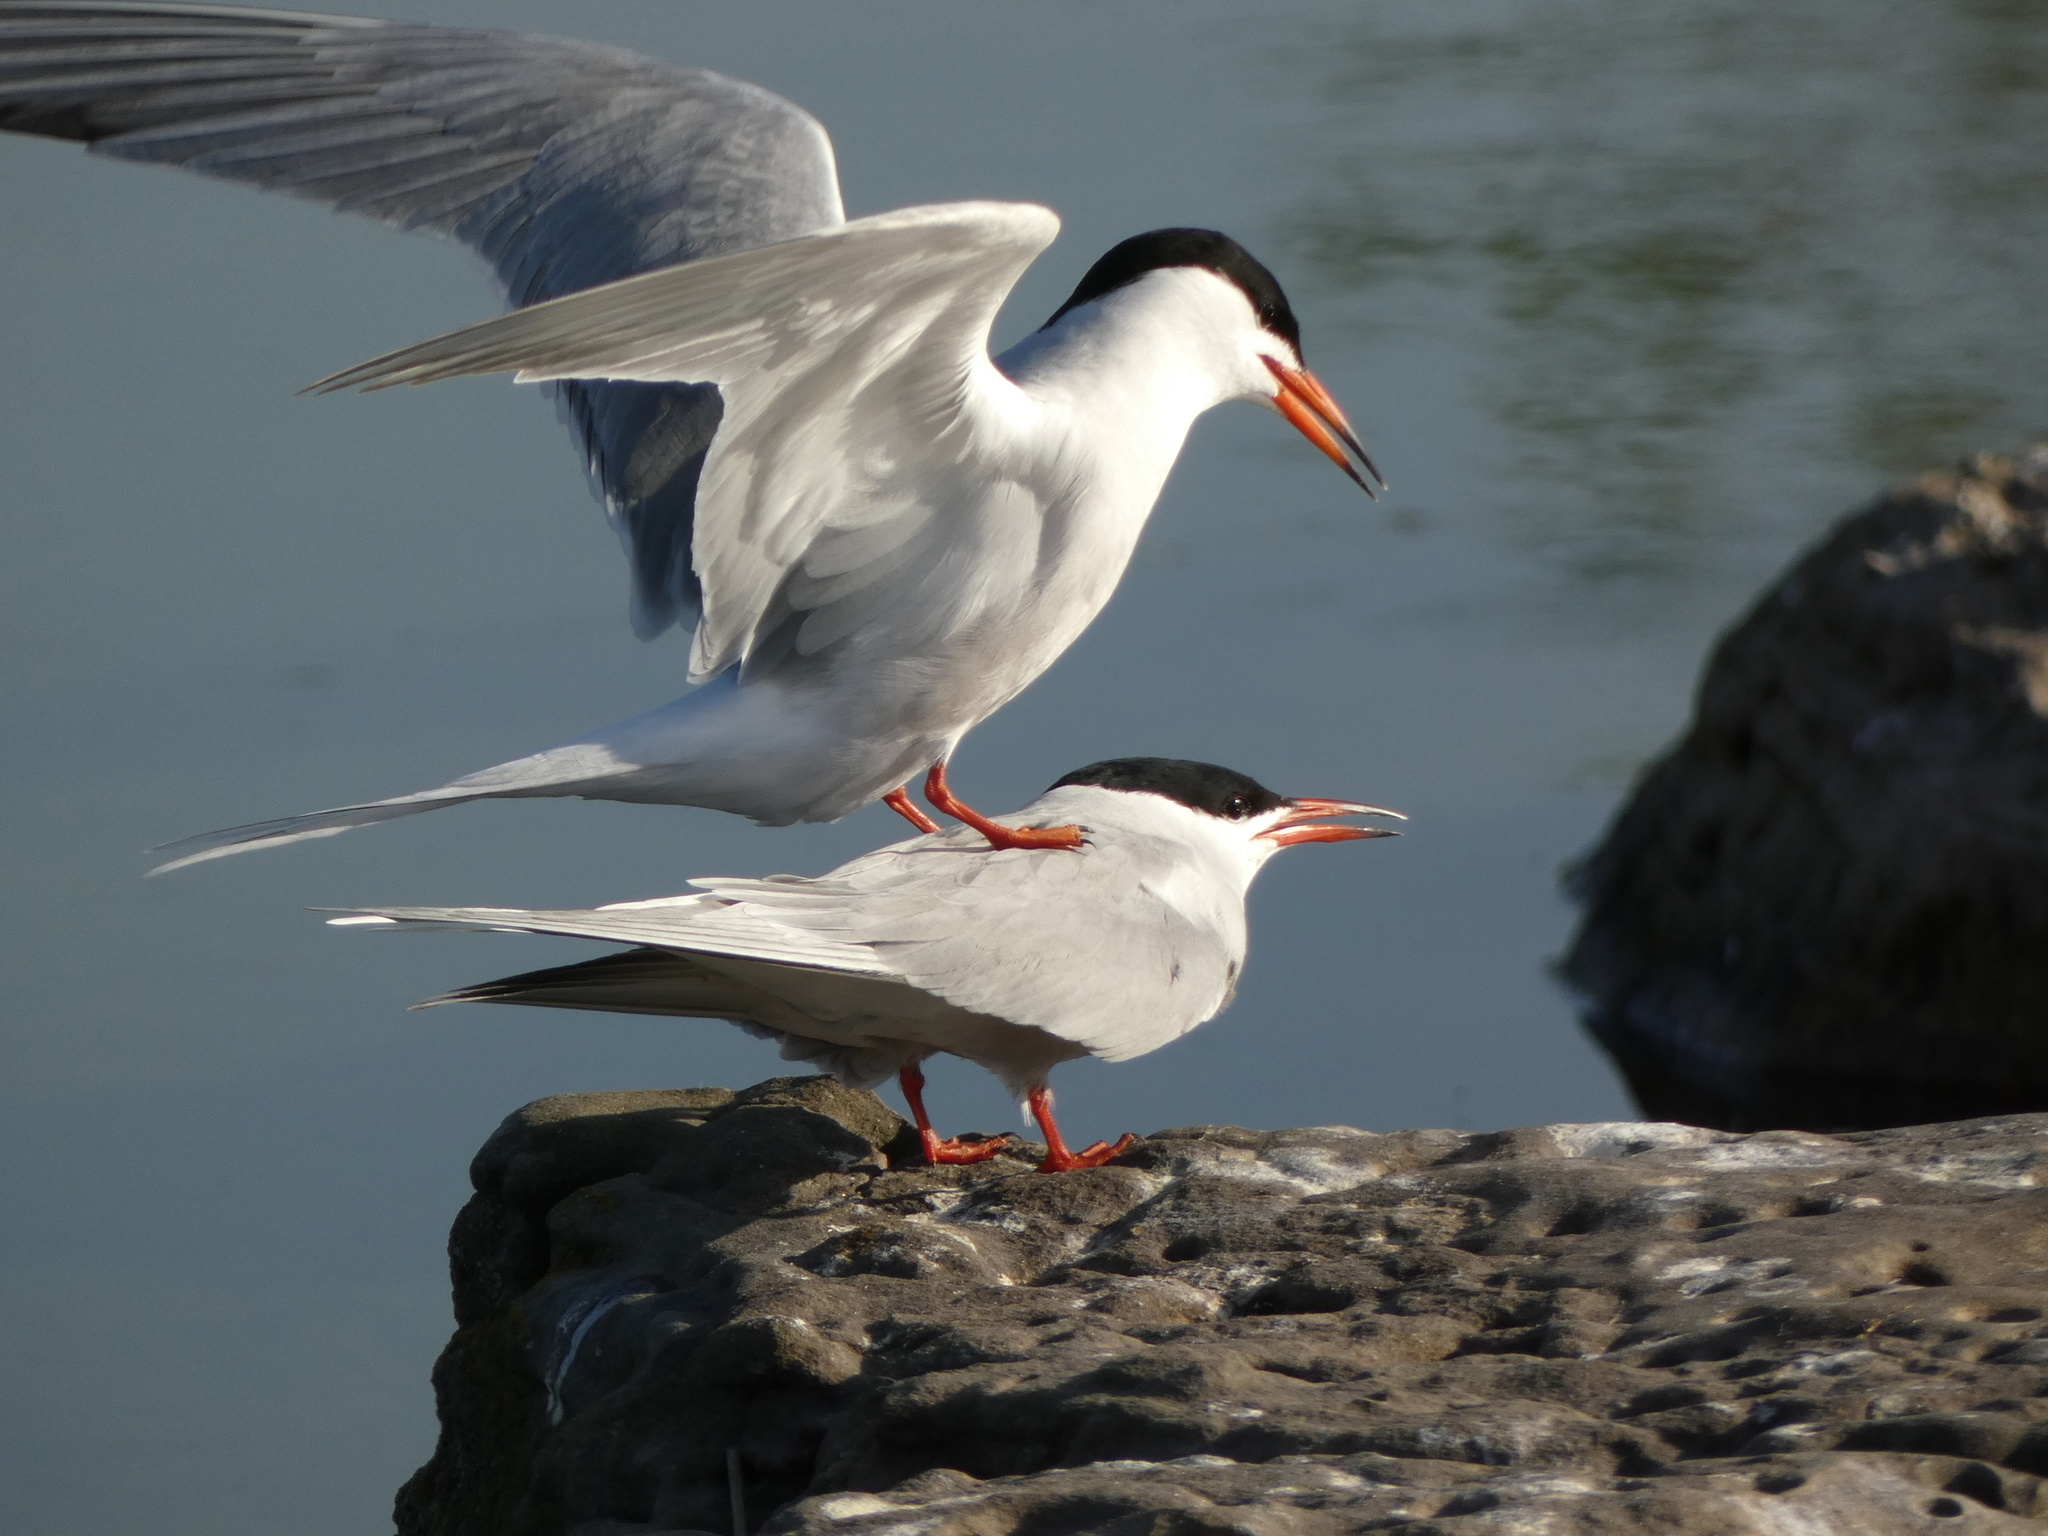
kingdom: Animalia
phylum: Chordata
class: Aves
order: Charadriiformes
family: Laridae
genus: Sterna
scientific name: Sterna hirundo
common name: Common tern
